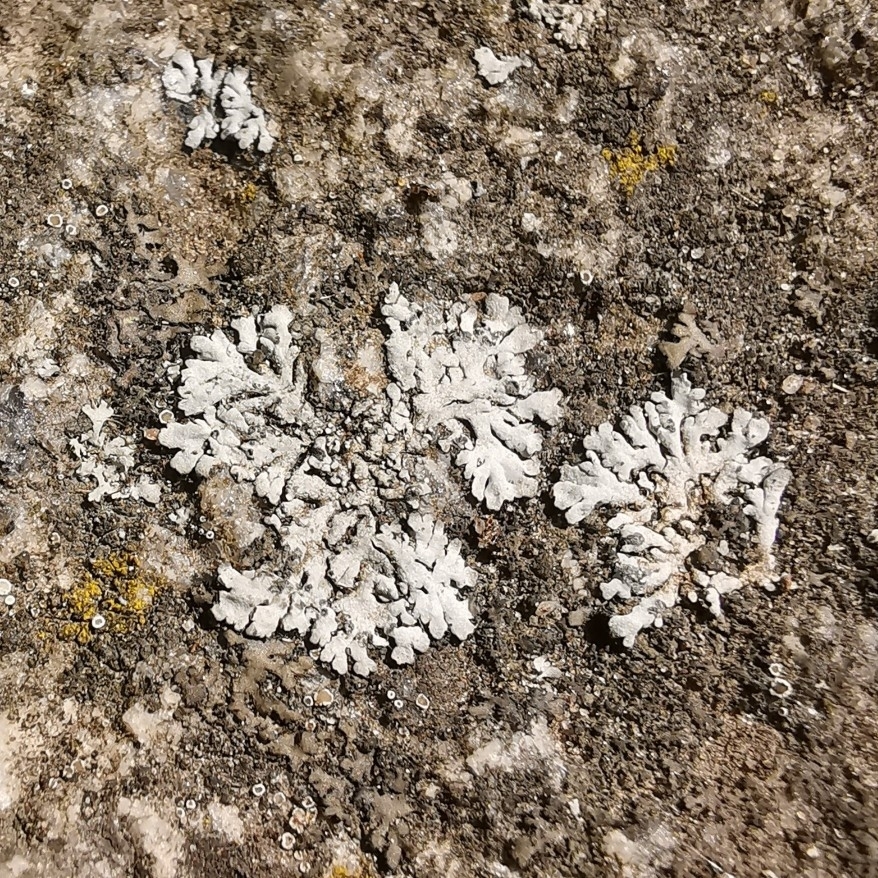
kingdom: Fungi
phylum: Ascomycota
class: Lecanoromycetes
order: Caliciales
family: Physciaceae
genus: Physcia
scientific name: Physcia caesia
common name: Blue-gray rosette lichen
